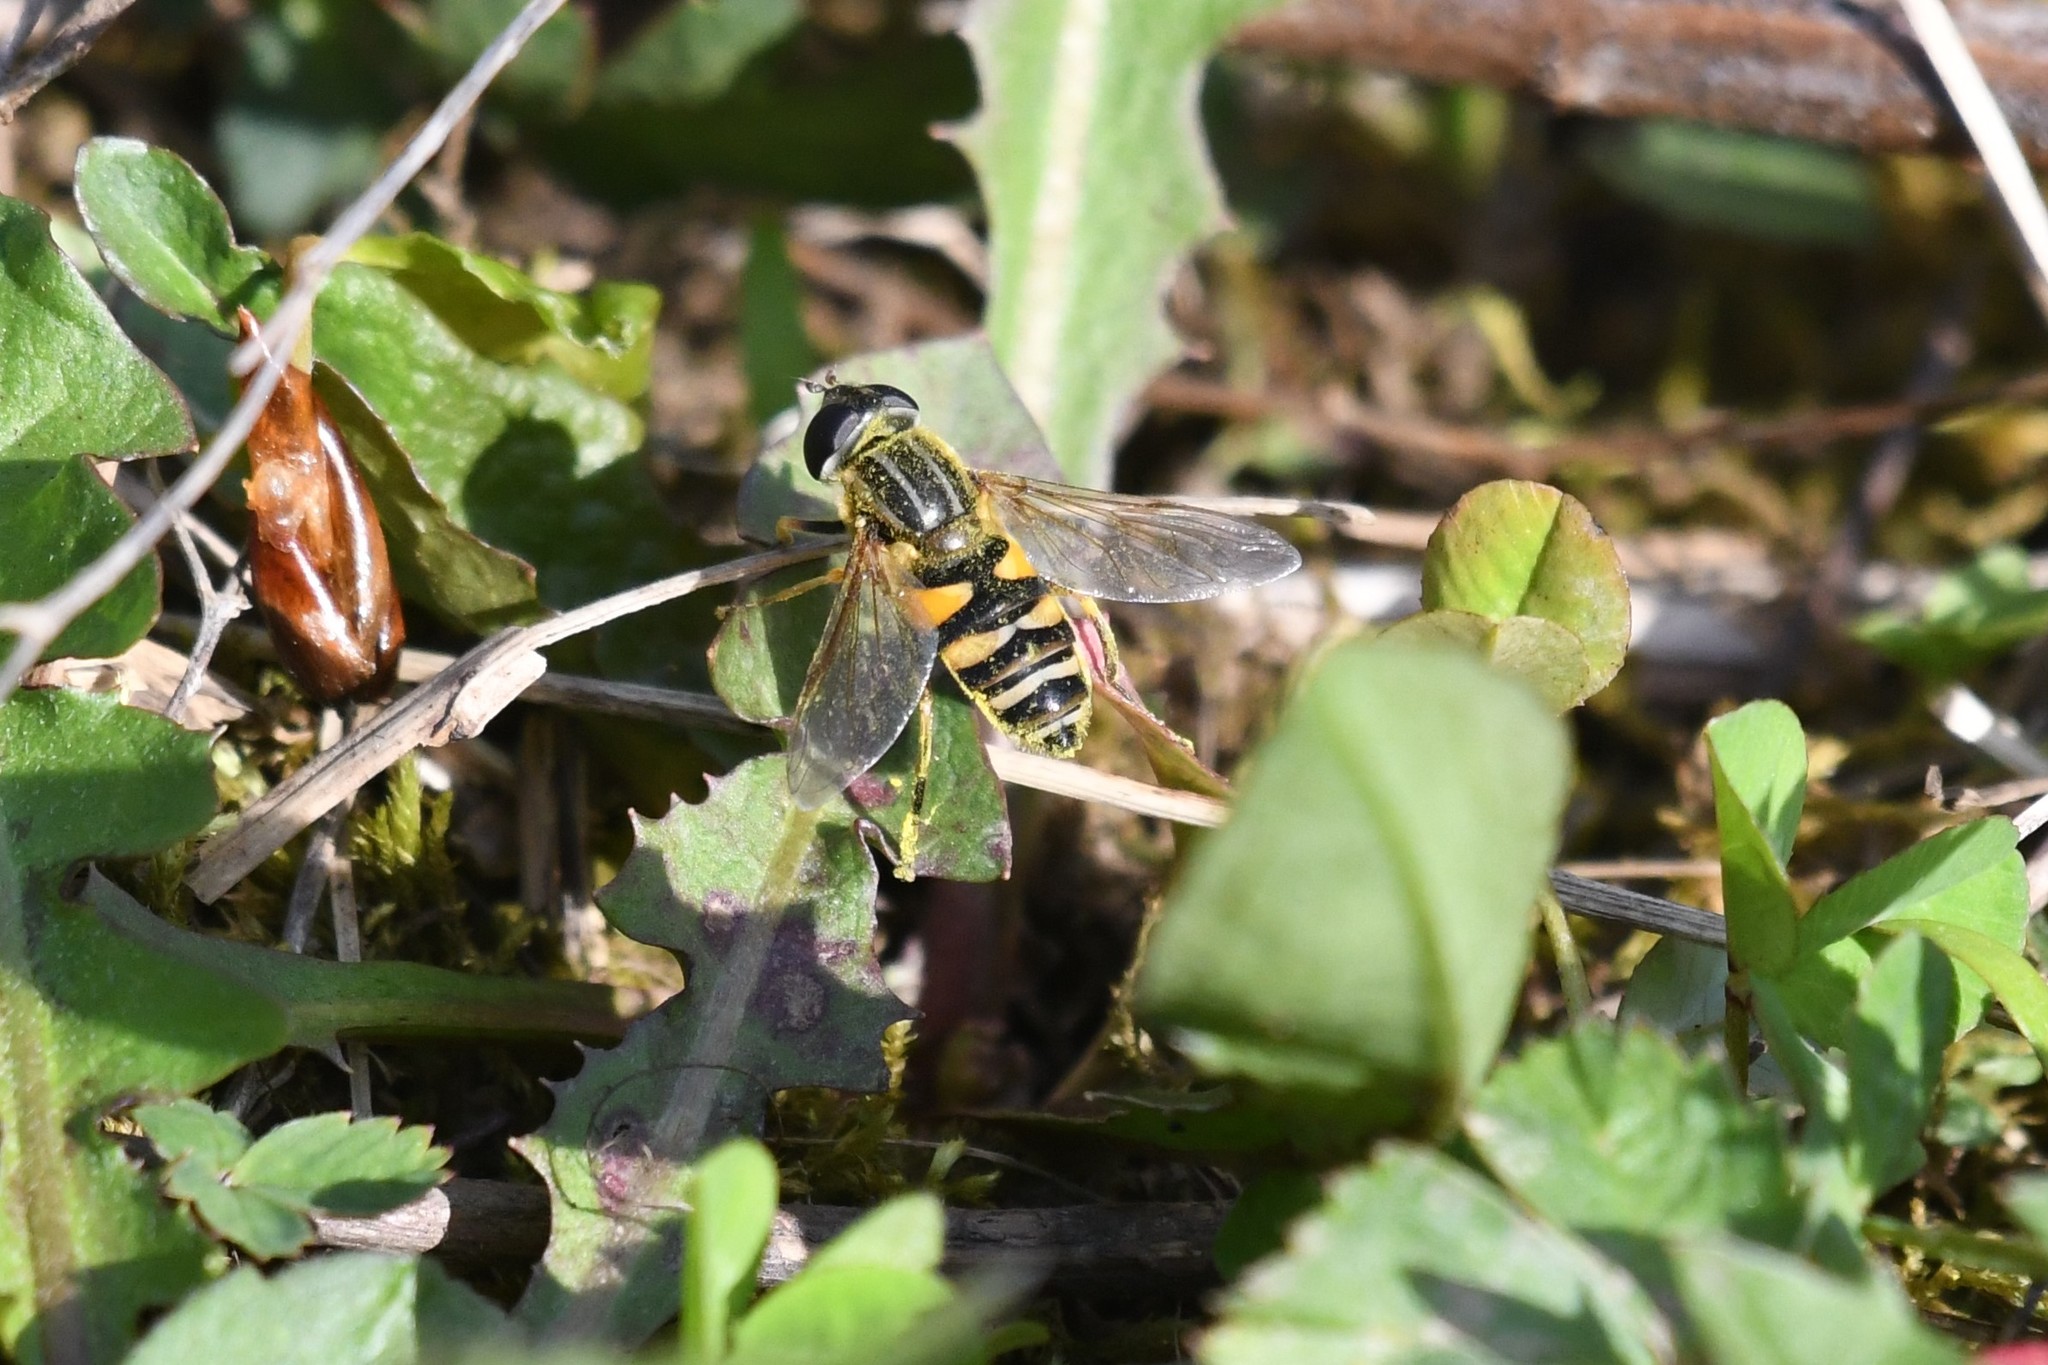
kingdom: Animalia
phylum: Arthropoda
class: Insecta
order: Diptera
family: Syrphidae
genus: Helophilus
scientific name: Helophilus fasciatus
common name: Narrow-headed marsh fly
